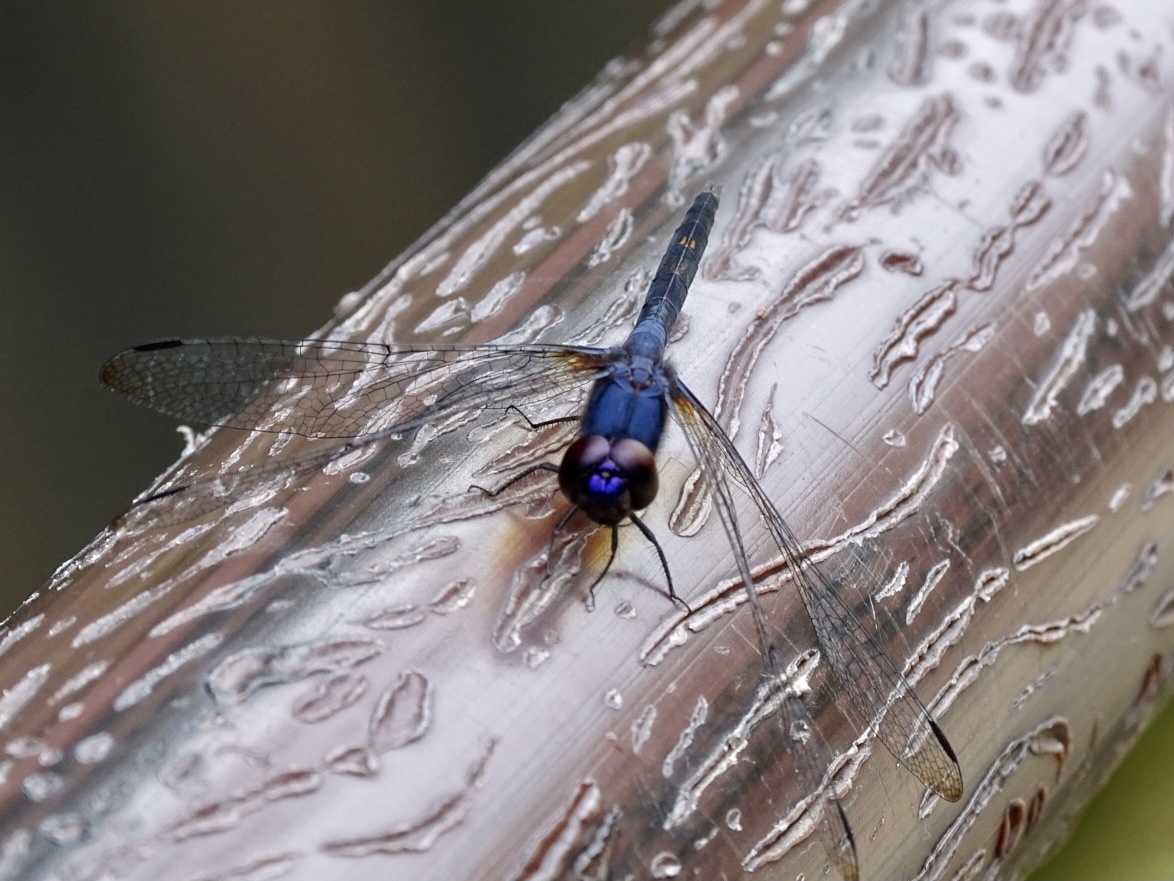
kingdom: Animalia
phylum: Arthropoda
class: Insecta
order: Odonata
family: Libellulidae
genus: Trithemis
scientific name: Trithemis festiva
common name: Indigo dropwing
